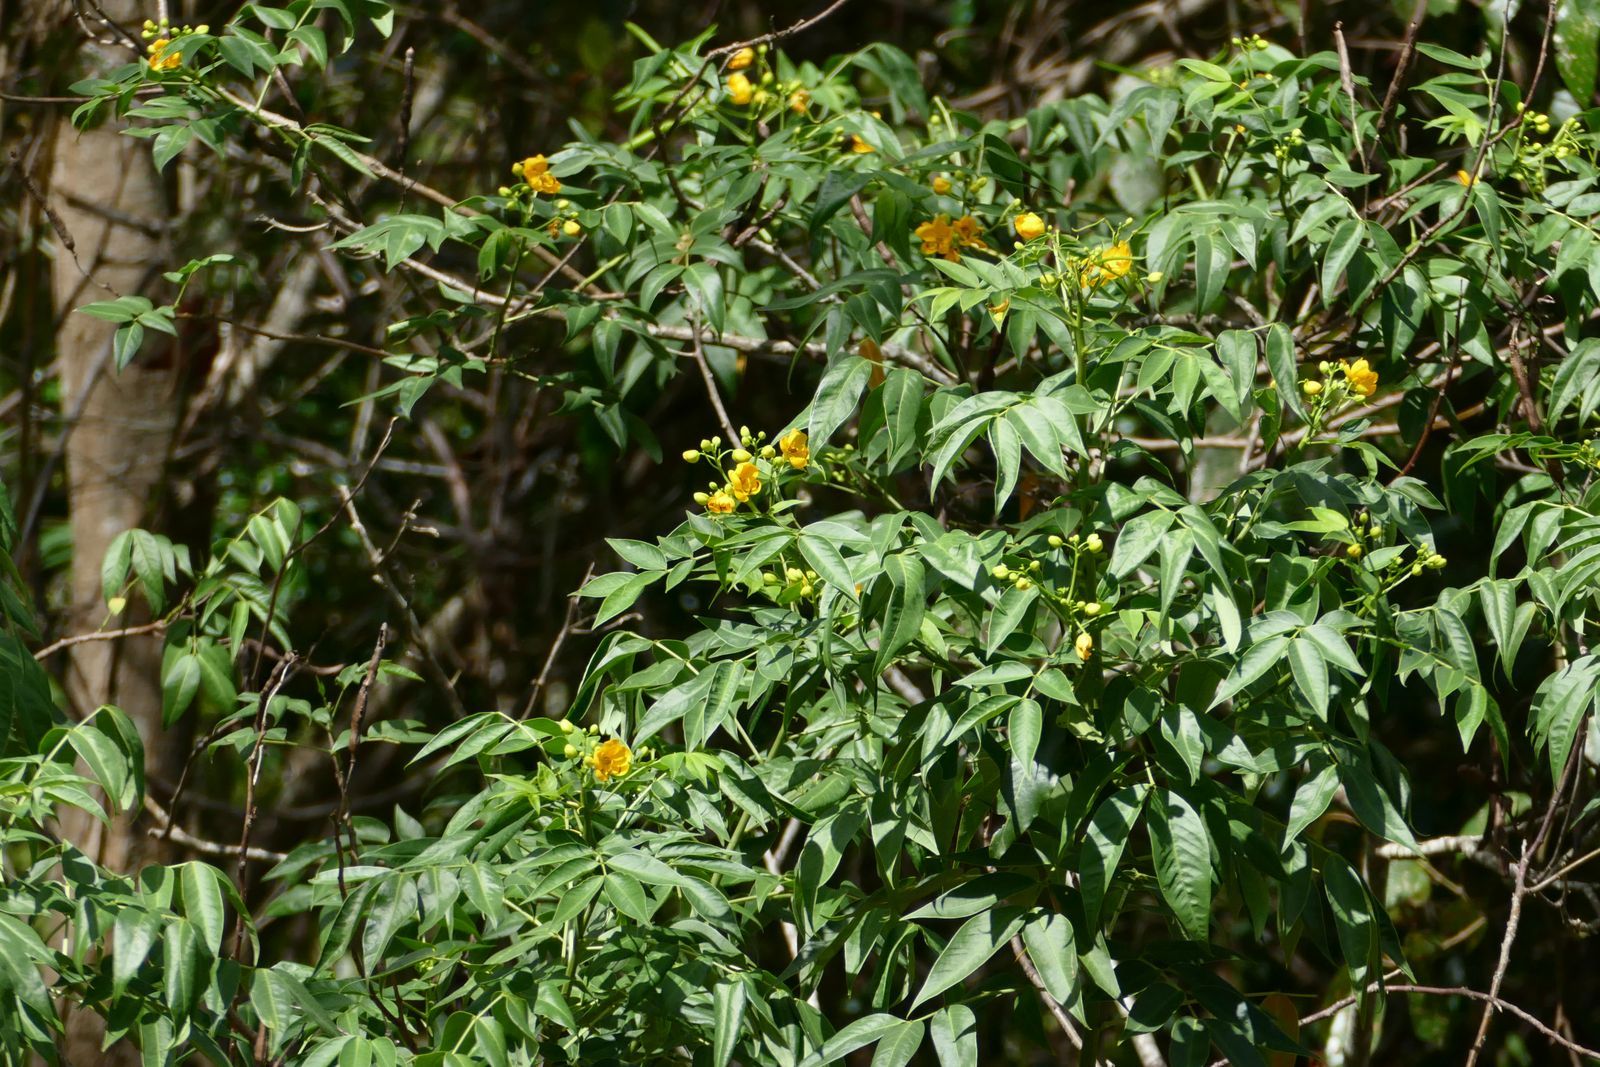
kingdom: Plantae
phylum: Tracheophyta
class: Magnoliopsida
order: Fabales
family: Fabaceae
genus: Senna
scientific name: Senna septemtrionalis
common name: Arsenic bush
